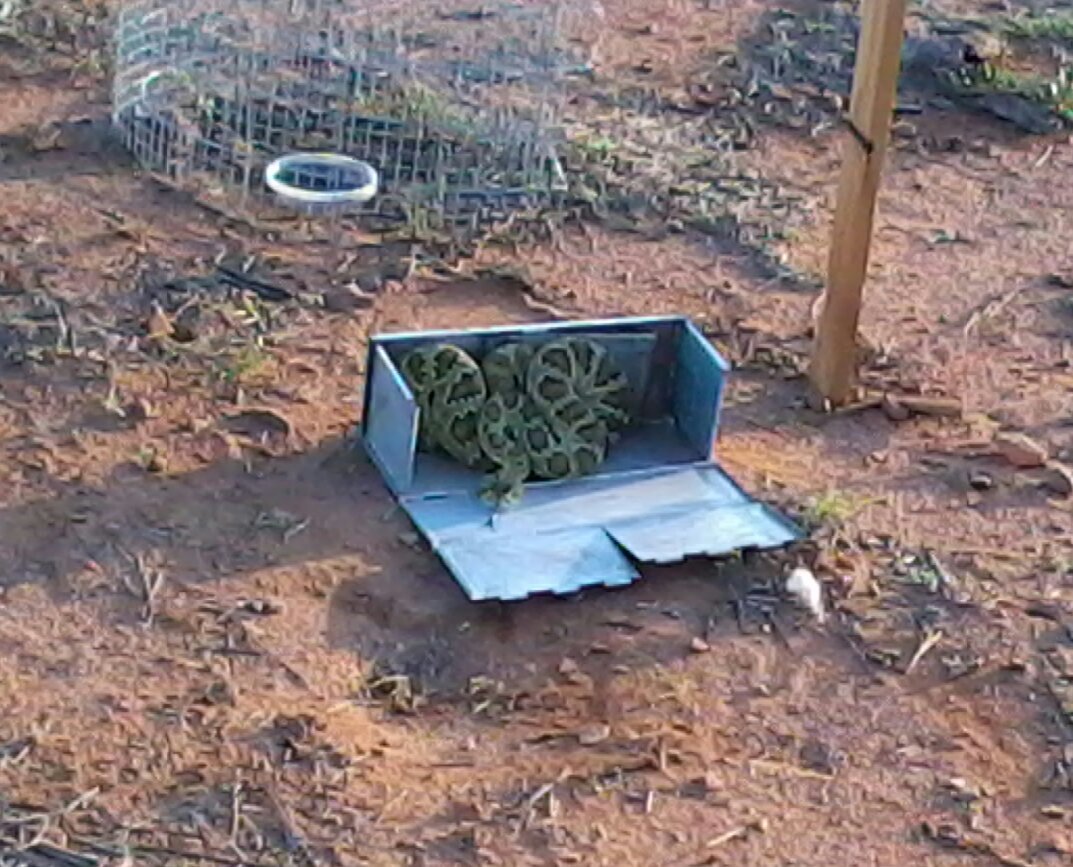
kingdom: Animalia
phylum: Chordata
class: Squamata
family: Viperidae
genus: Crotalus
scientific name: Crotalus scutulatus
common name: Scutulatus
